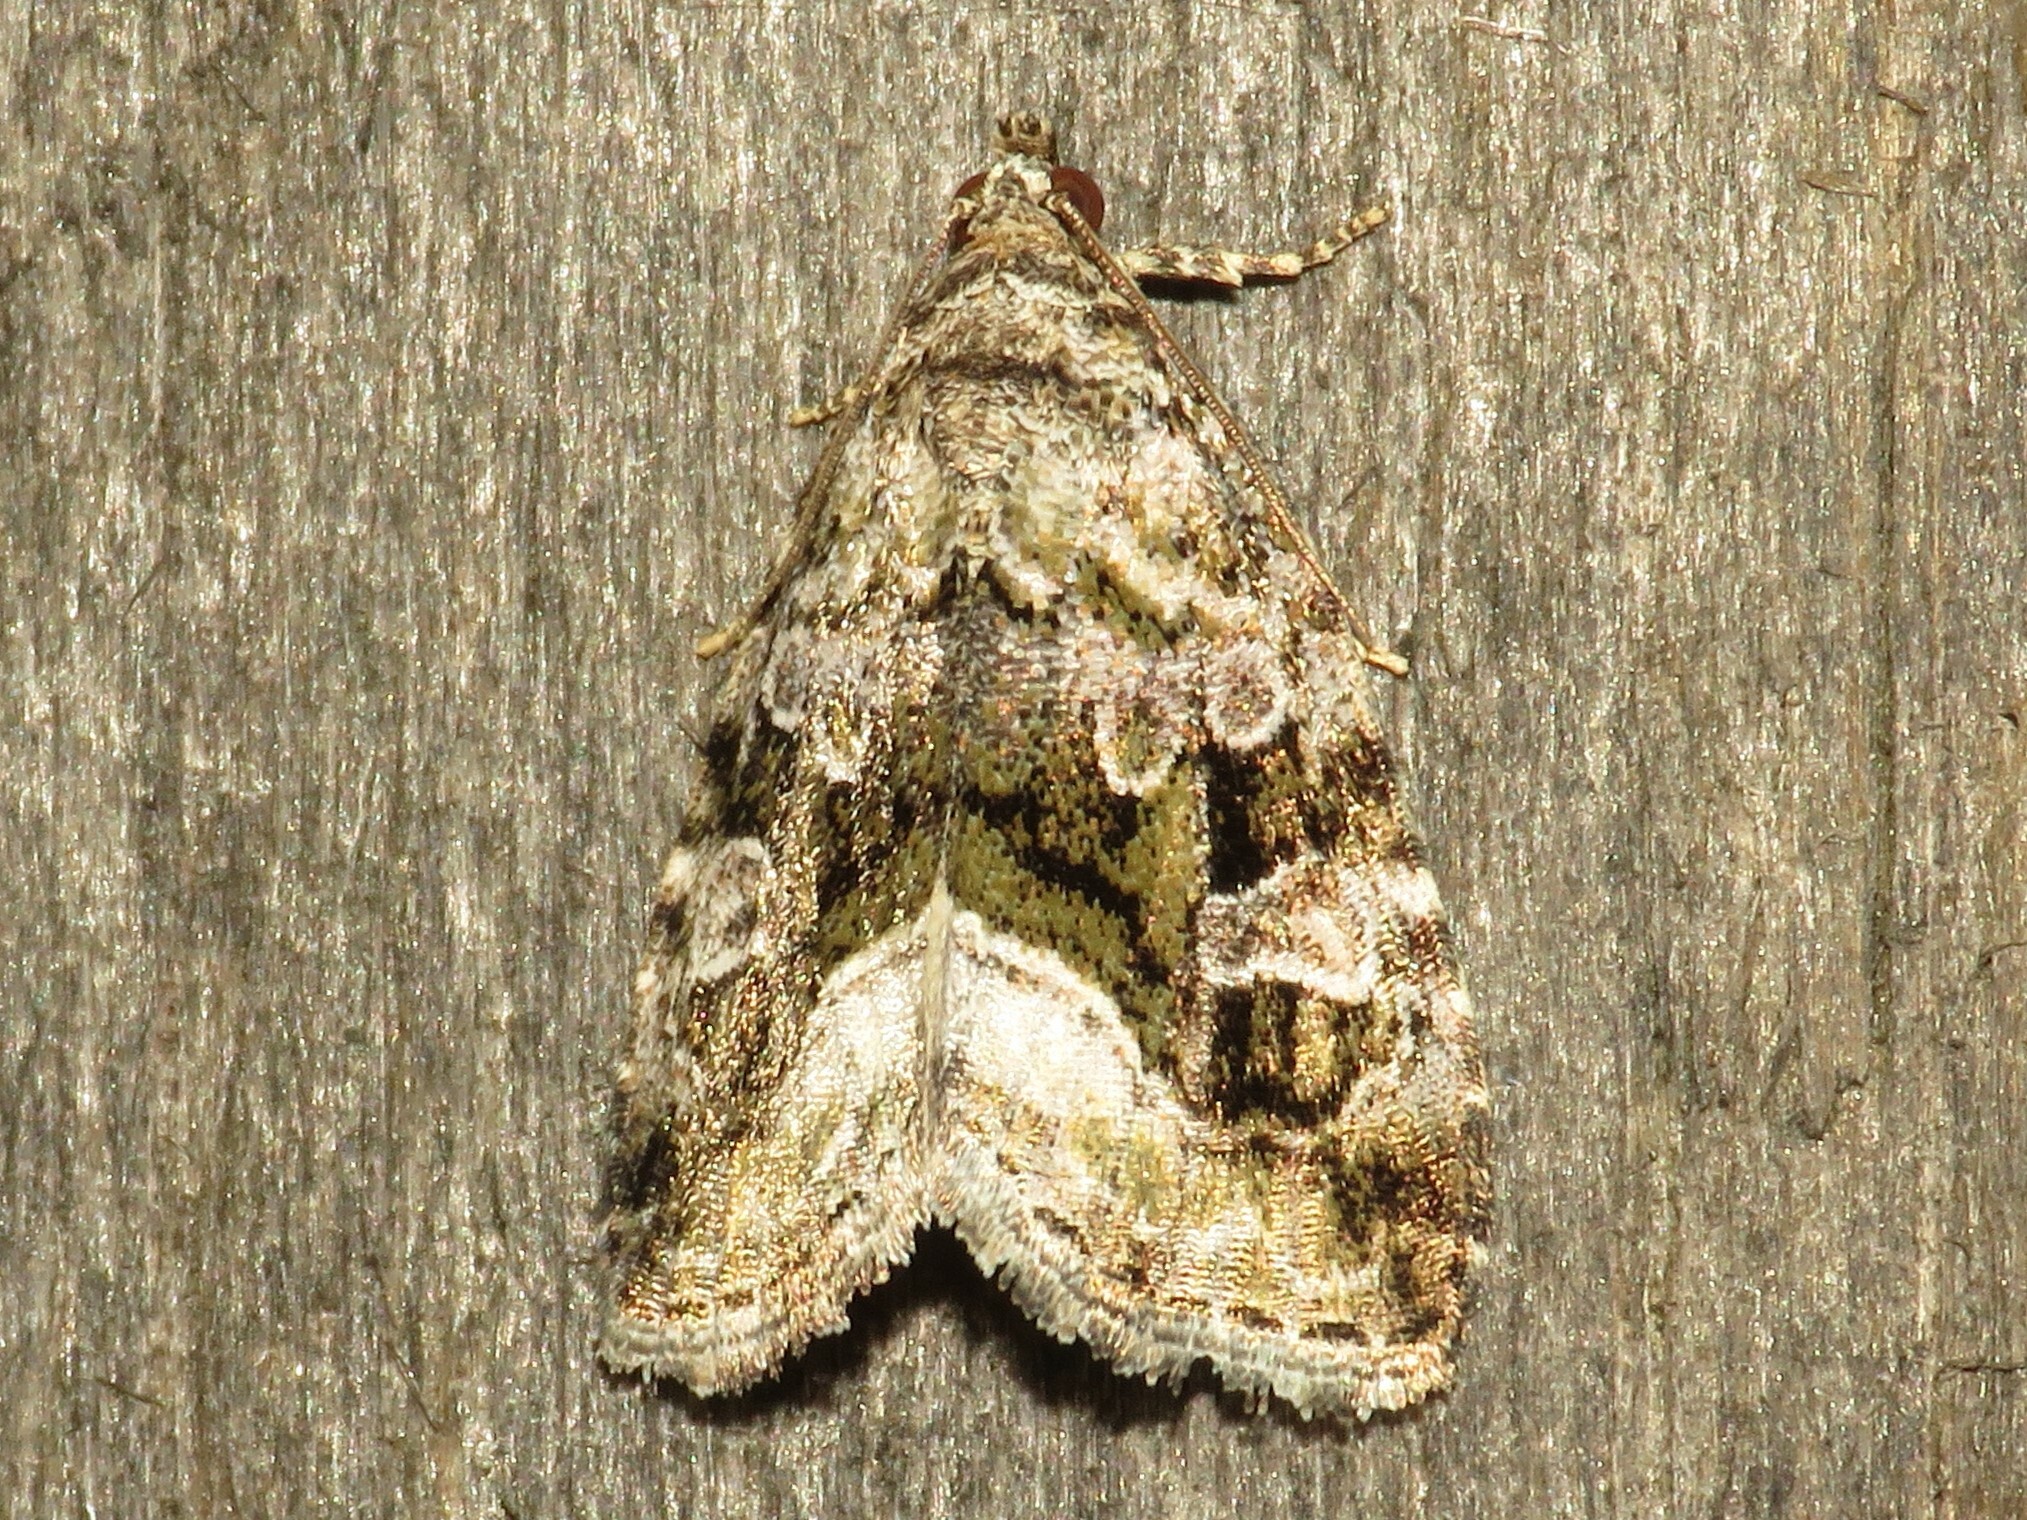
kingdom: Animalia
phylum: Arthropoda
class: Insecta
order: Lepidoptera
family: Noctuidae
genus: Protodeltote
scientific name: Protodeltote muscosula
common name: Large mossy glyph
